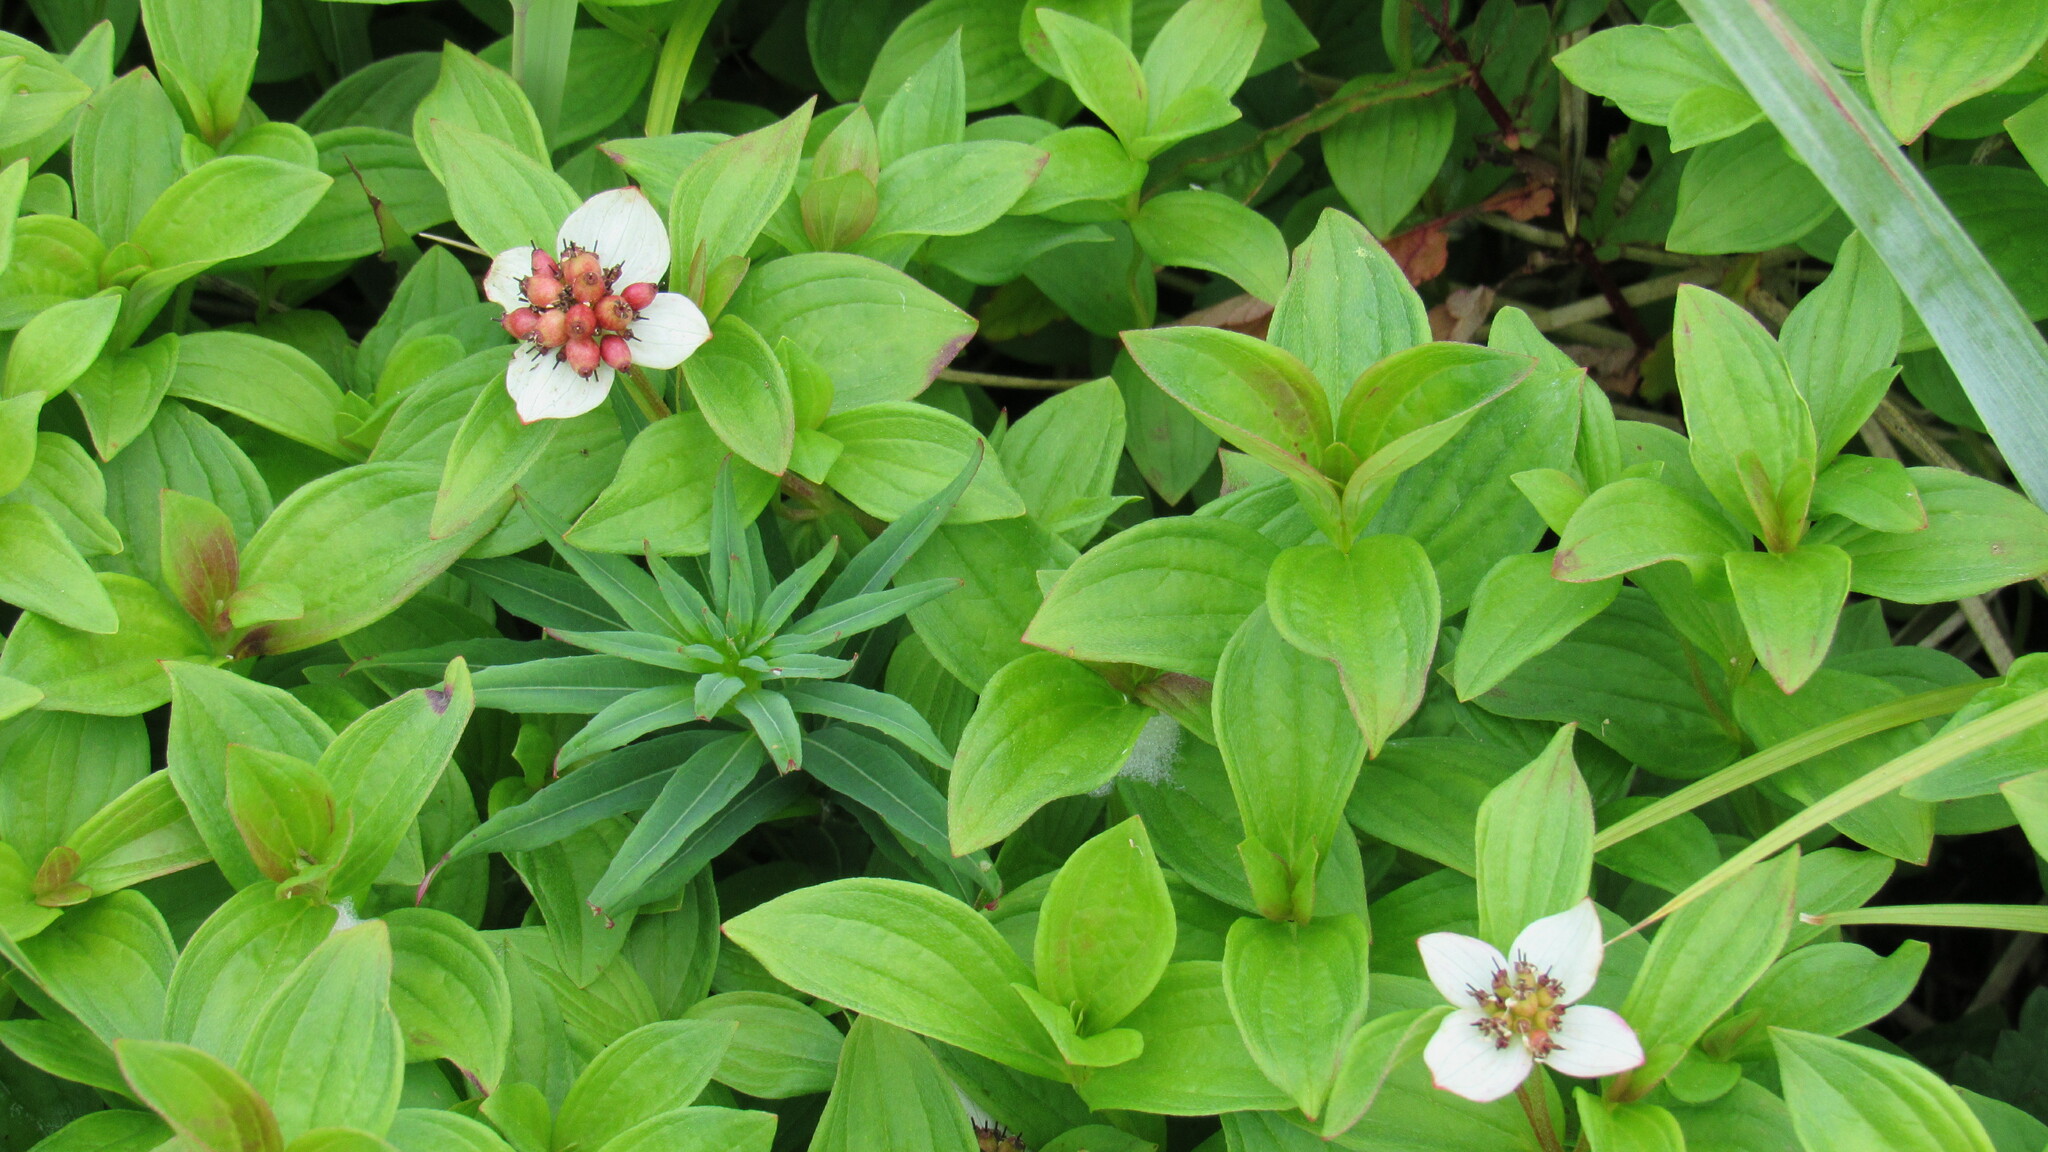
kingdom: Plantae
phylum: Tracheophyta
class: Magnoliopsida
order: Cornales
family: Cornaceae
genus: Cornus
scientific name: Cornus suecica
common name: Dwarf cornel
